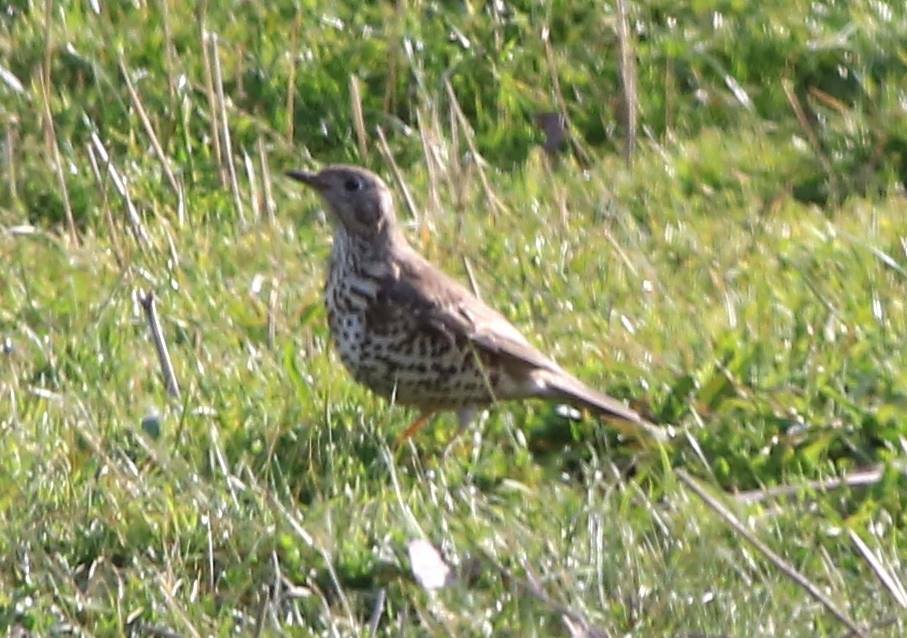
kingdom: Animalia
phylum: Chordata
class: Aves
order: Passeriformes
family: Turdidae
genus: Turdus
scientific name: Turdus viscivorus
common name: Mistle thrush
